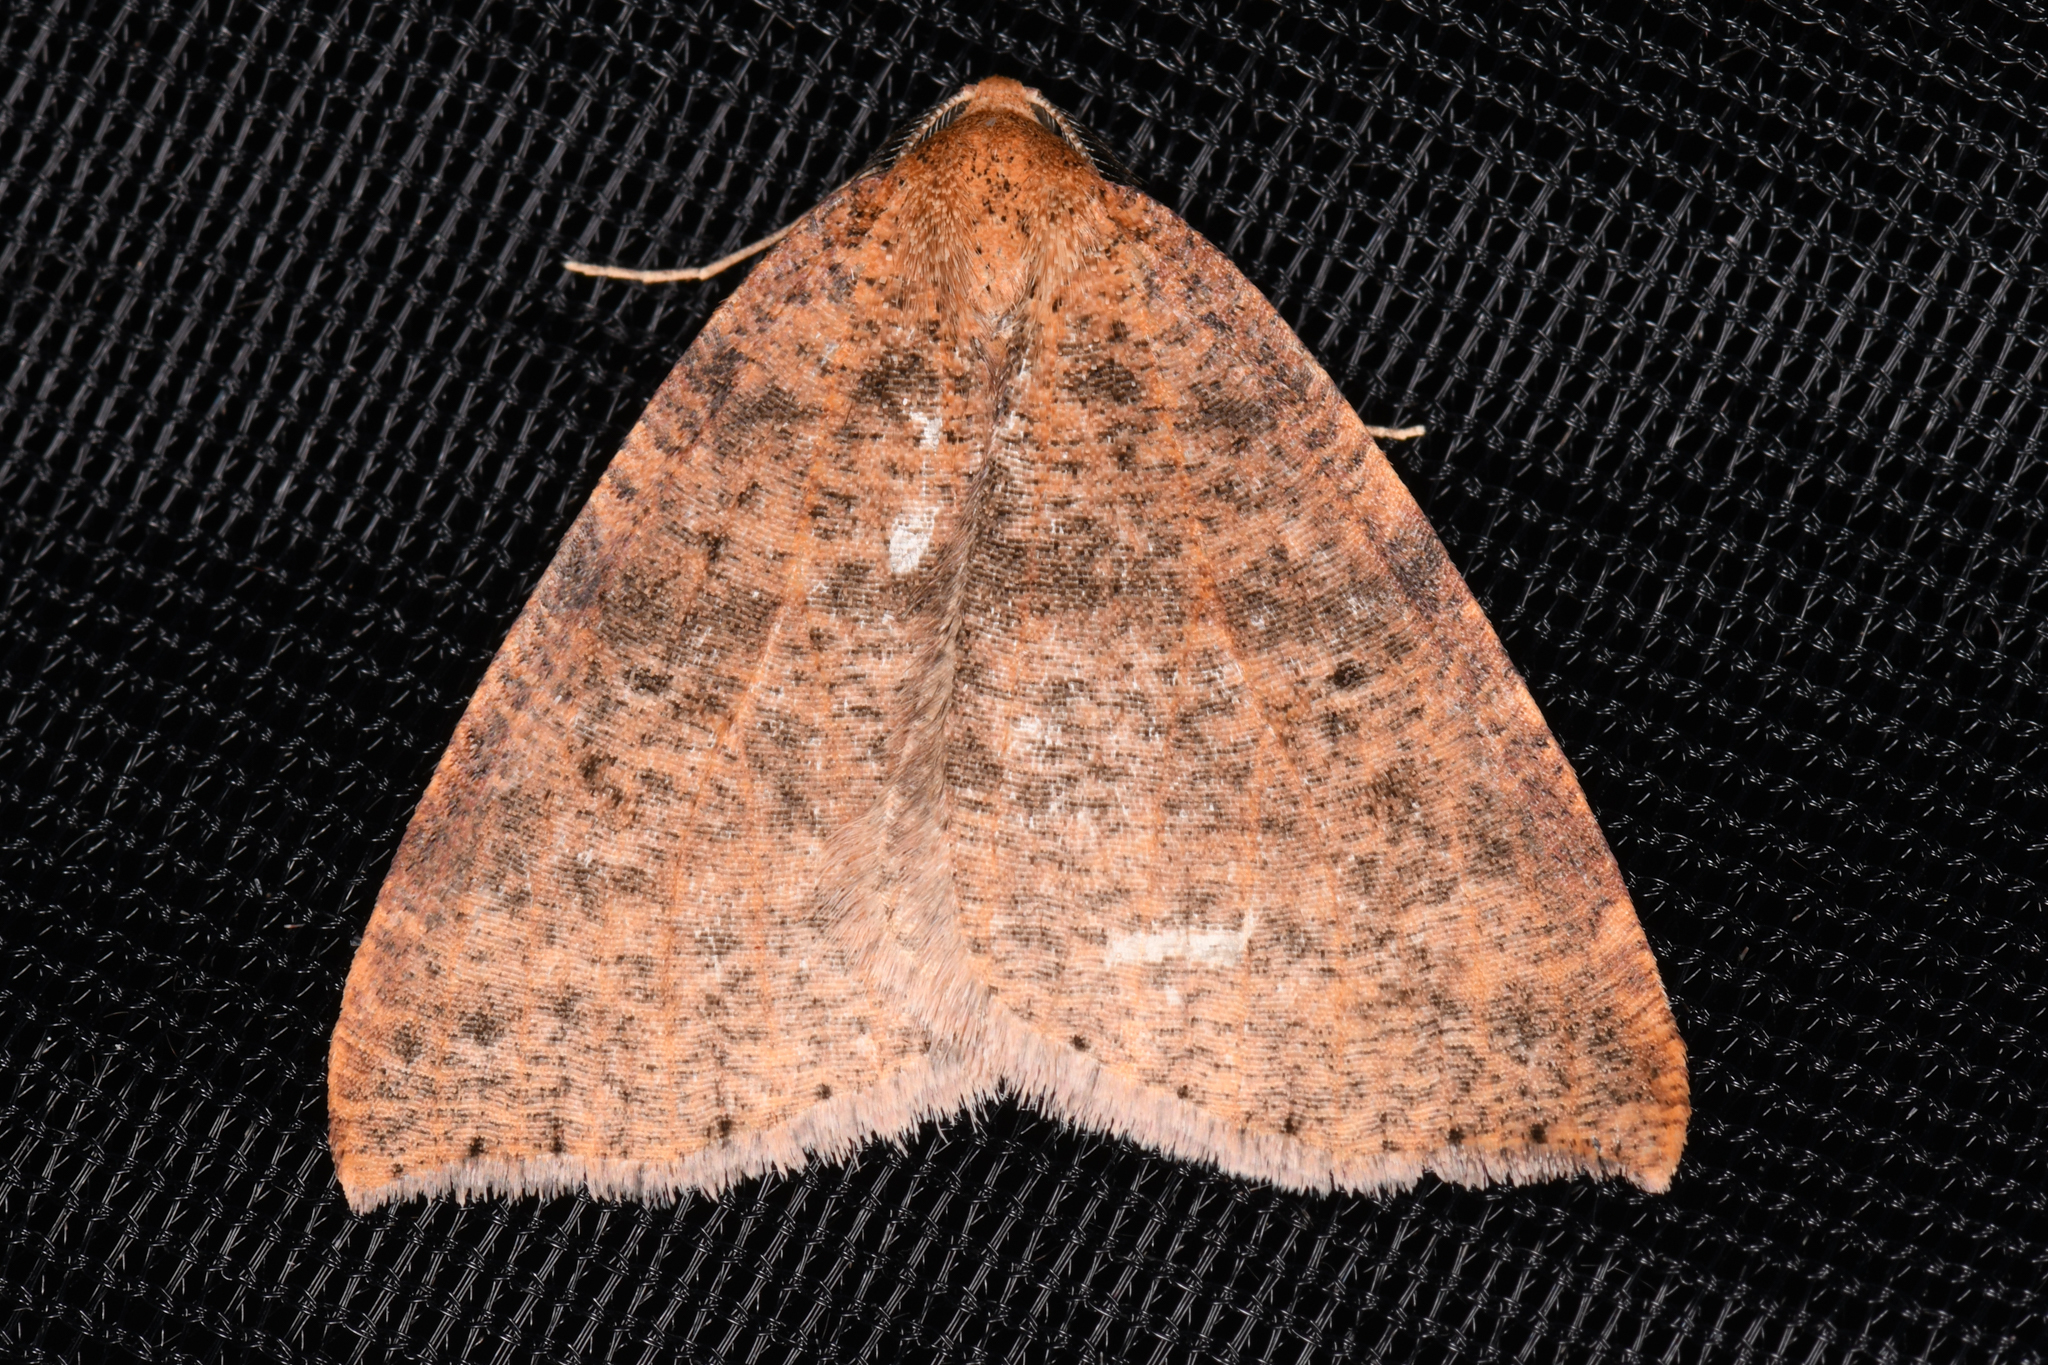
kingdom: Animalia
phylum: Arthropoda
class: Insecta
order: Lepidoptera
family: Geometridae
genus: Drepanulatrix
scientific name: Drepanulatrix falcataria
